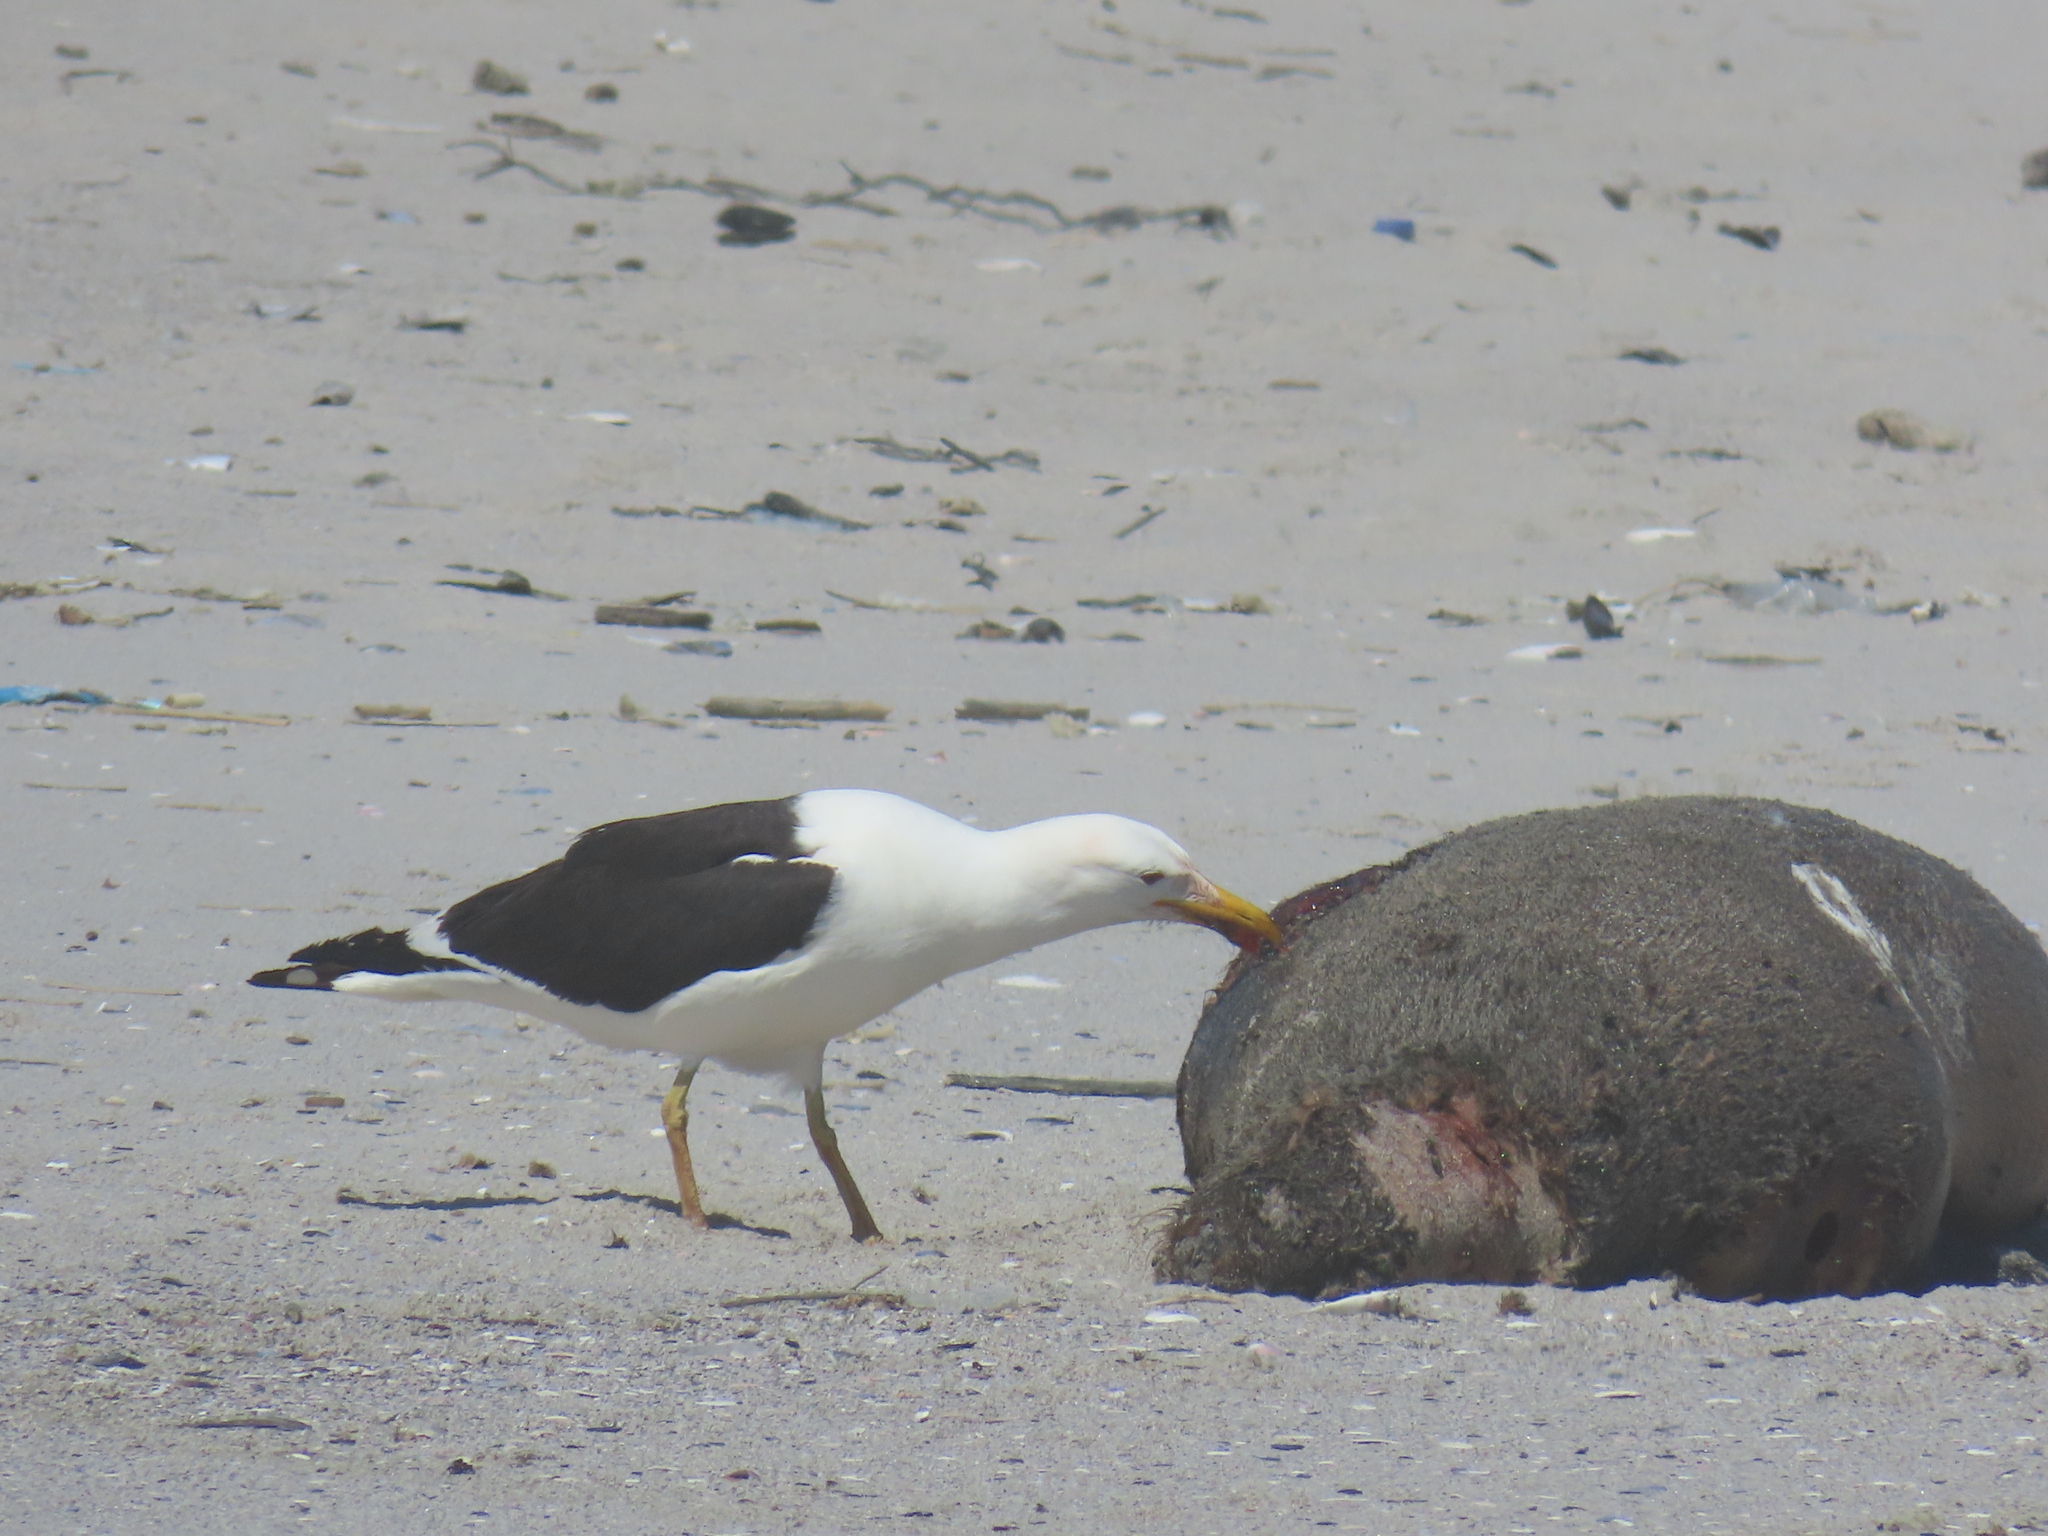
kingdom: Animalia
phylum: Chordata
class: Aves
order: Charadriiformes
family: Laridae
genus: Larus
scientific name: Larus dominicanus
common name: Kelp gull
